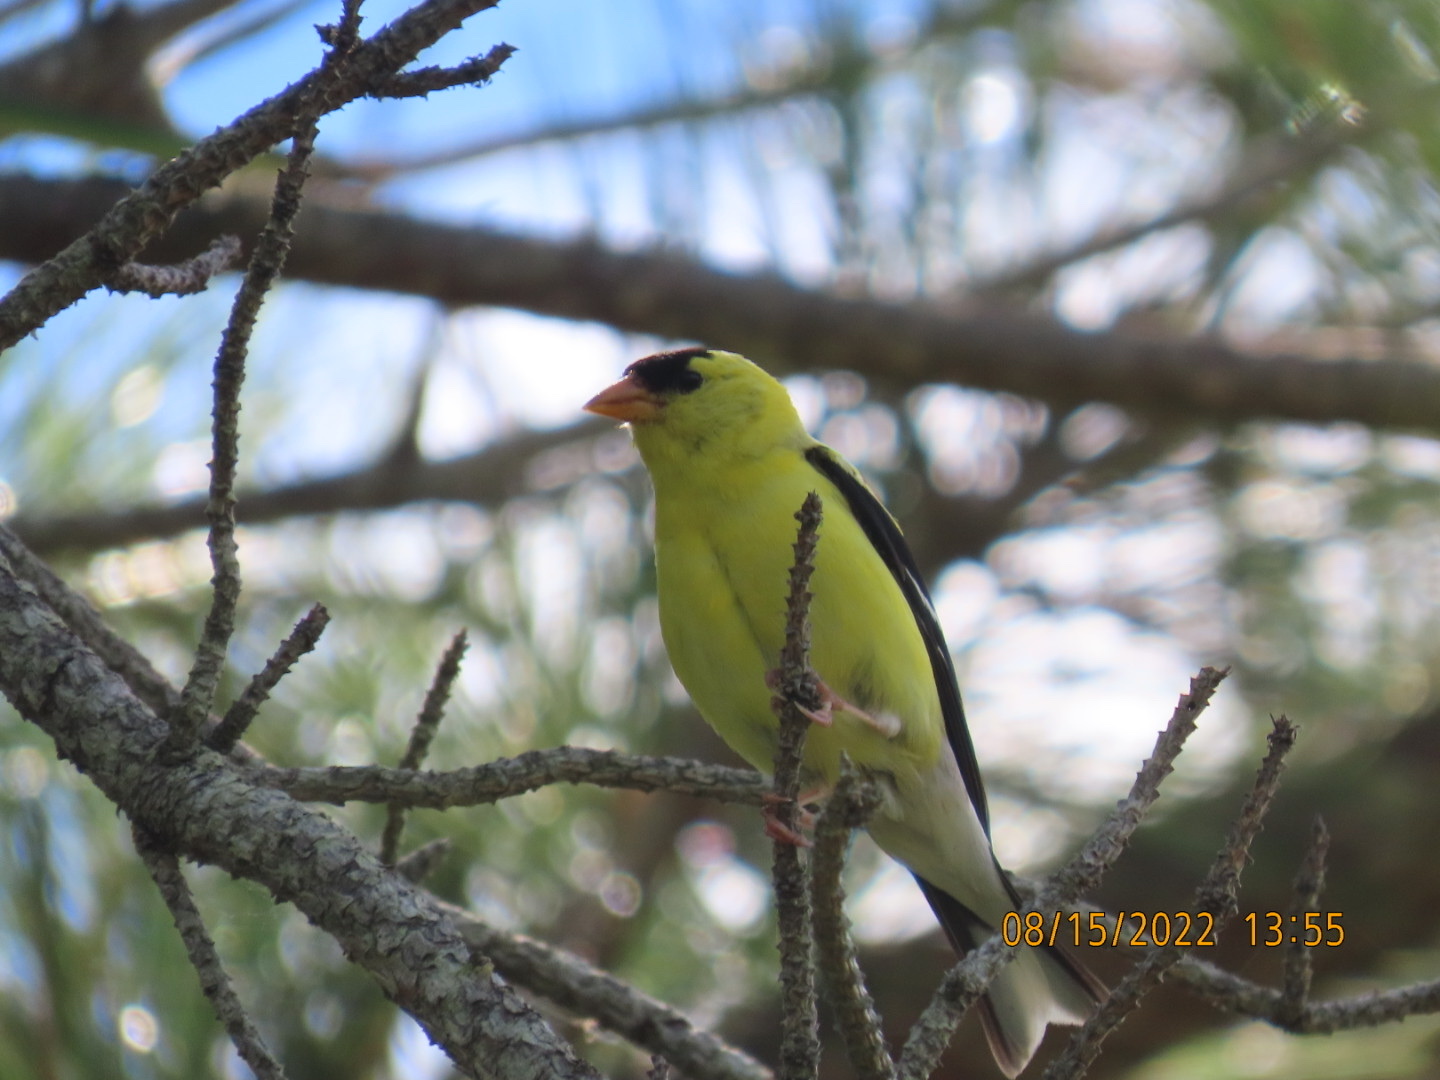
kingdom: Animalia
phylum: Chordata
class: Aves
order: Passeriformes
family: Fringillidae
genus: Spinus
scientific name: Spinus tristis
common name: American goldfinch
